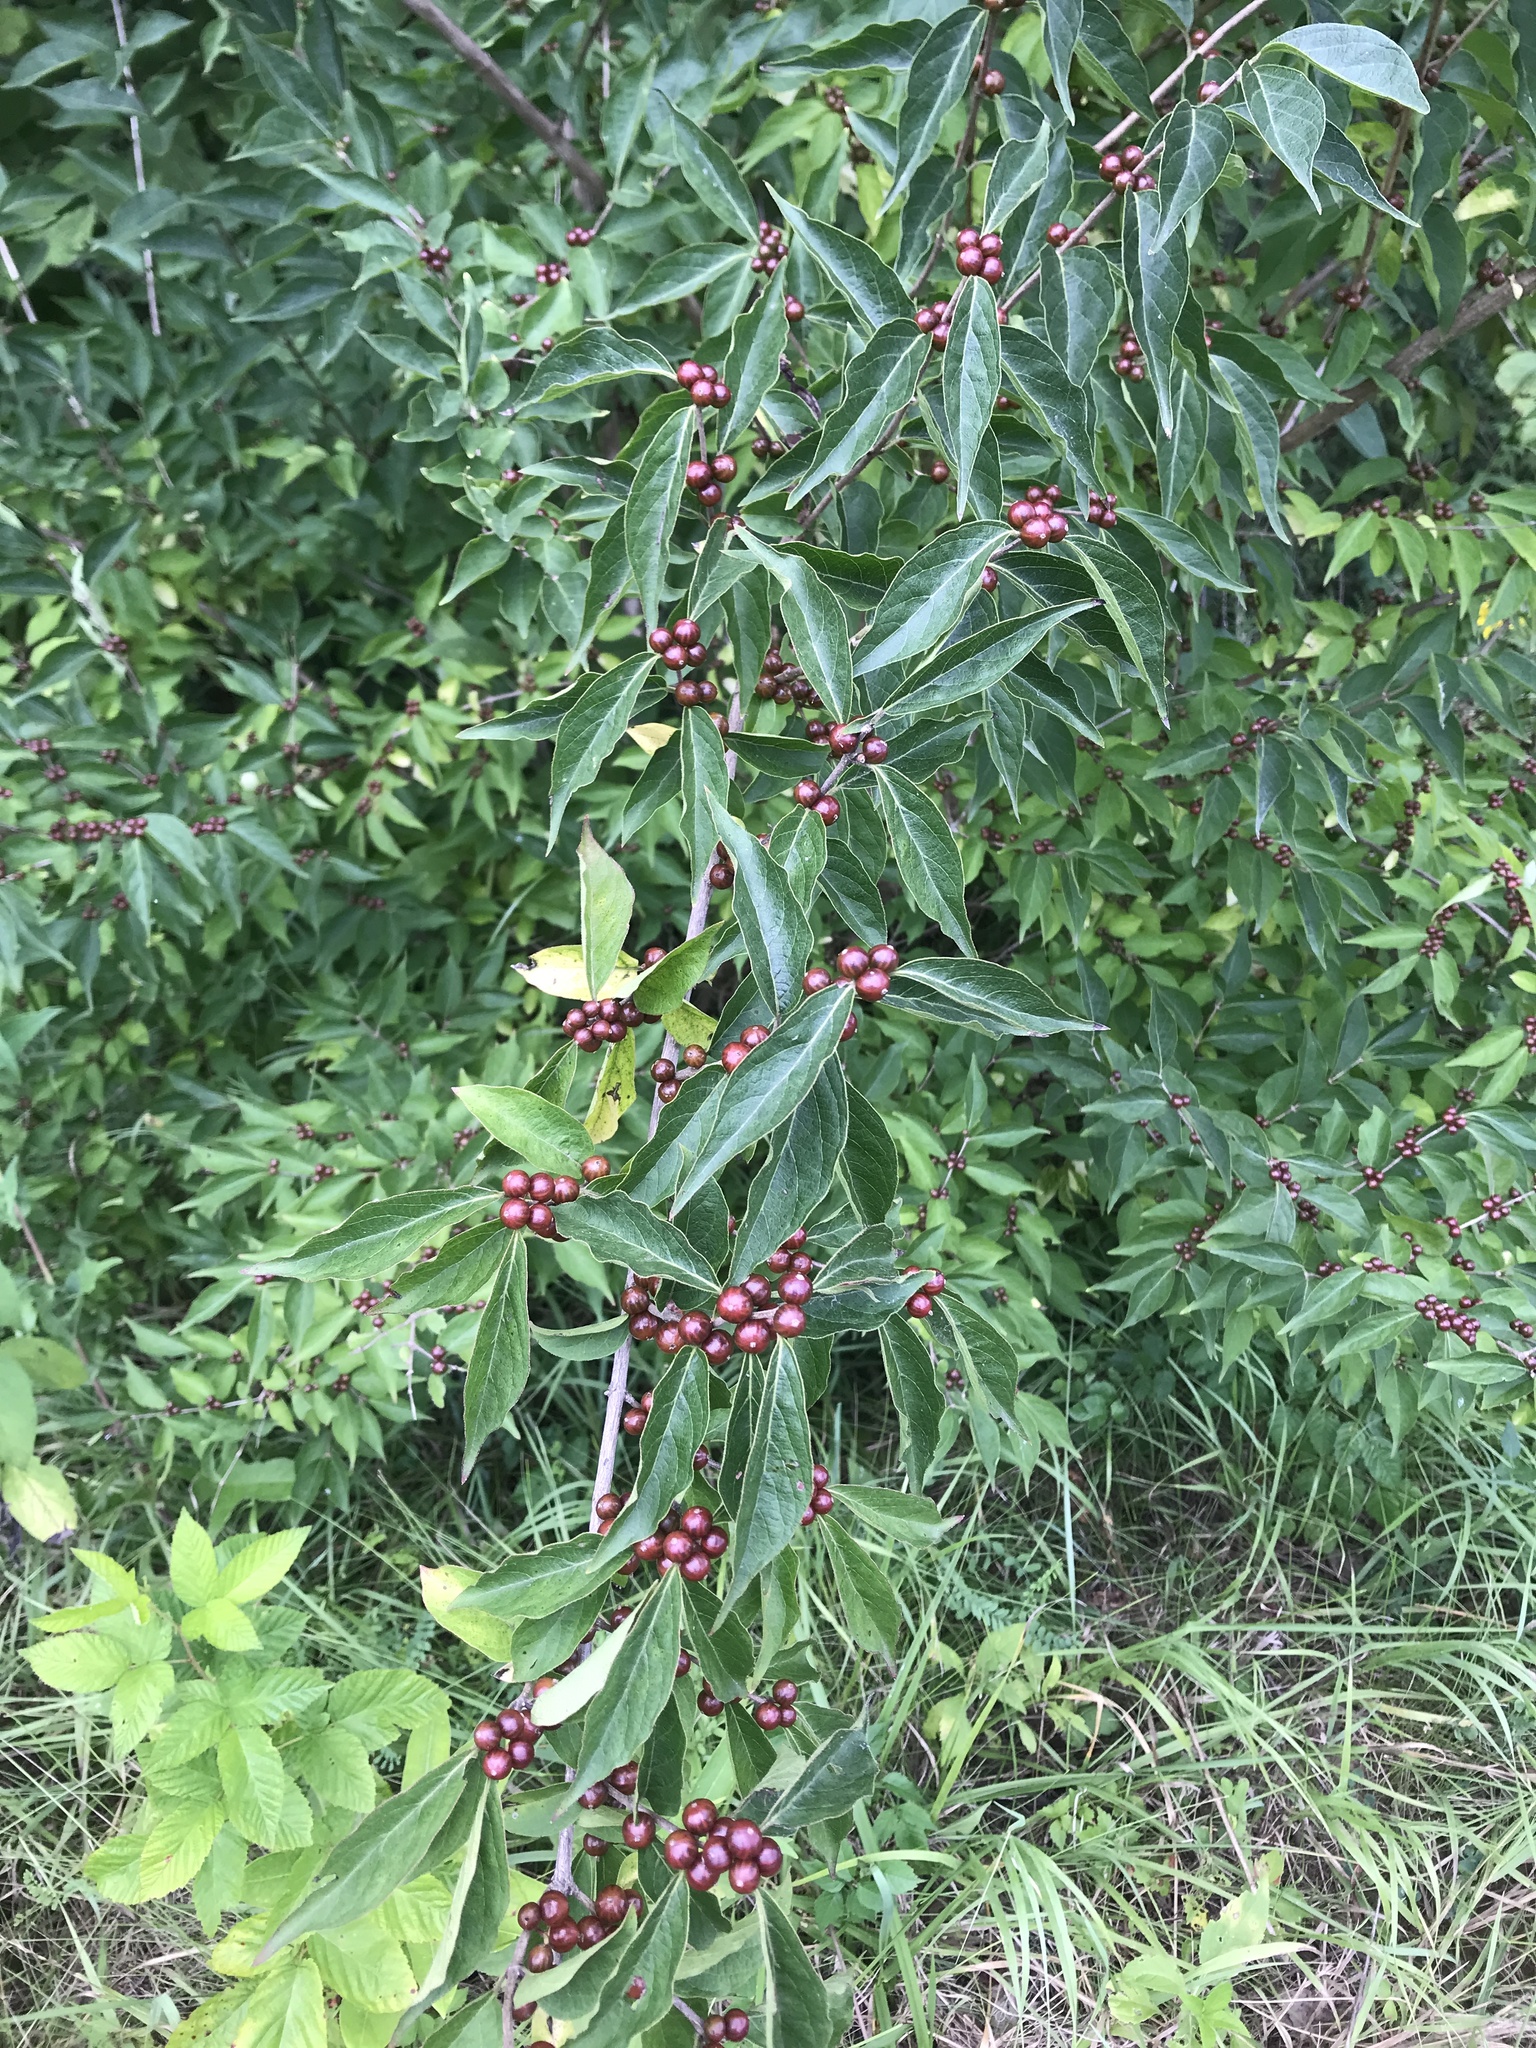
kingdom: Plantae
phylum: Tracheophyta
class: Magnoliopsida
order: Dipsacales
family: Caprifoliaceae
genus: Lonicera
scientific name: Lonicera maackii
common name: Amur honeysuckle
